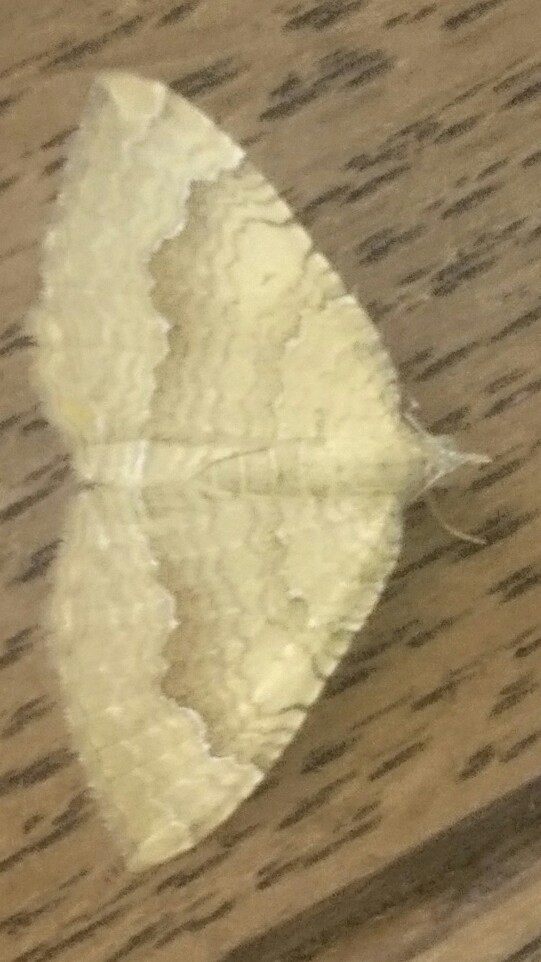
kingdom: Animalia
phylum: Arthropoda
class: Insecta
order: Lepidoptera
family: Geometridae
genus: Camptogramma
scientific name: Camptogramma bilineata
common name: Yellow shell
